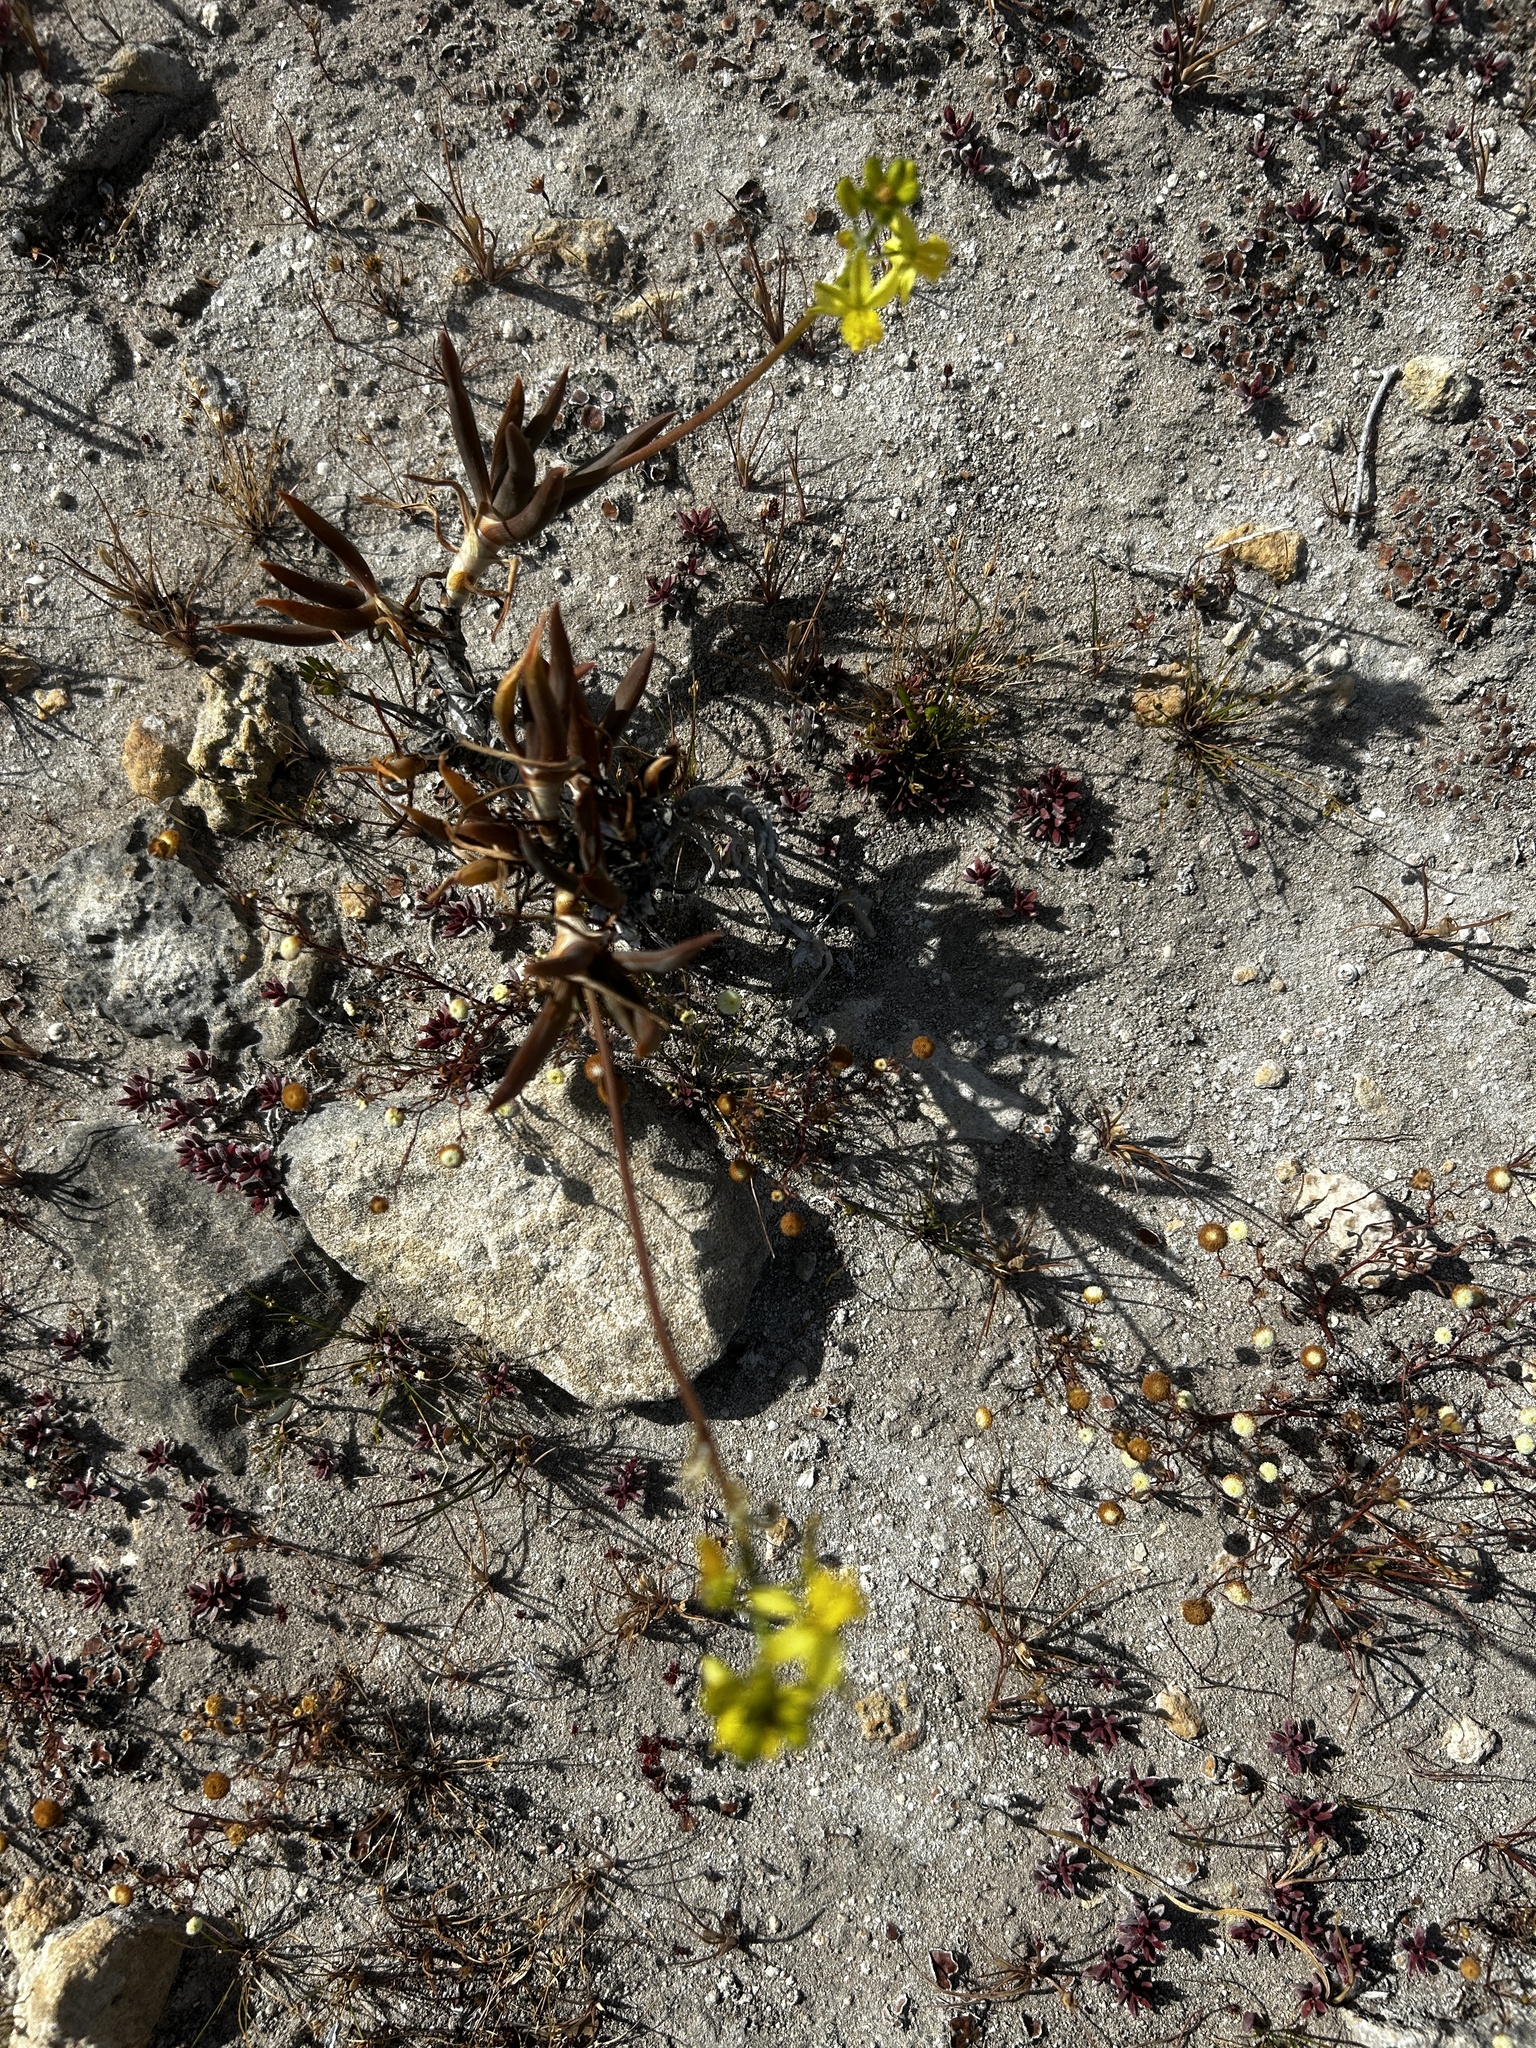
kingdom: Plantae
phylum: Tracheophyta
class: Liliopsida
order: Asparagales
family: Asphodelaceae
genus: Bulbine
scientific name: Bulbine frutescens
